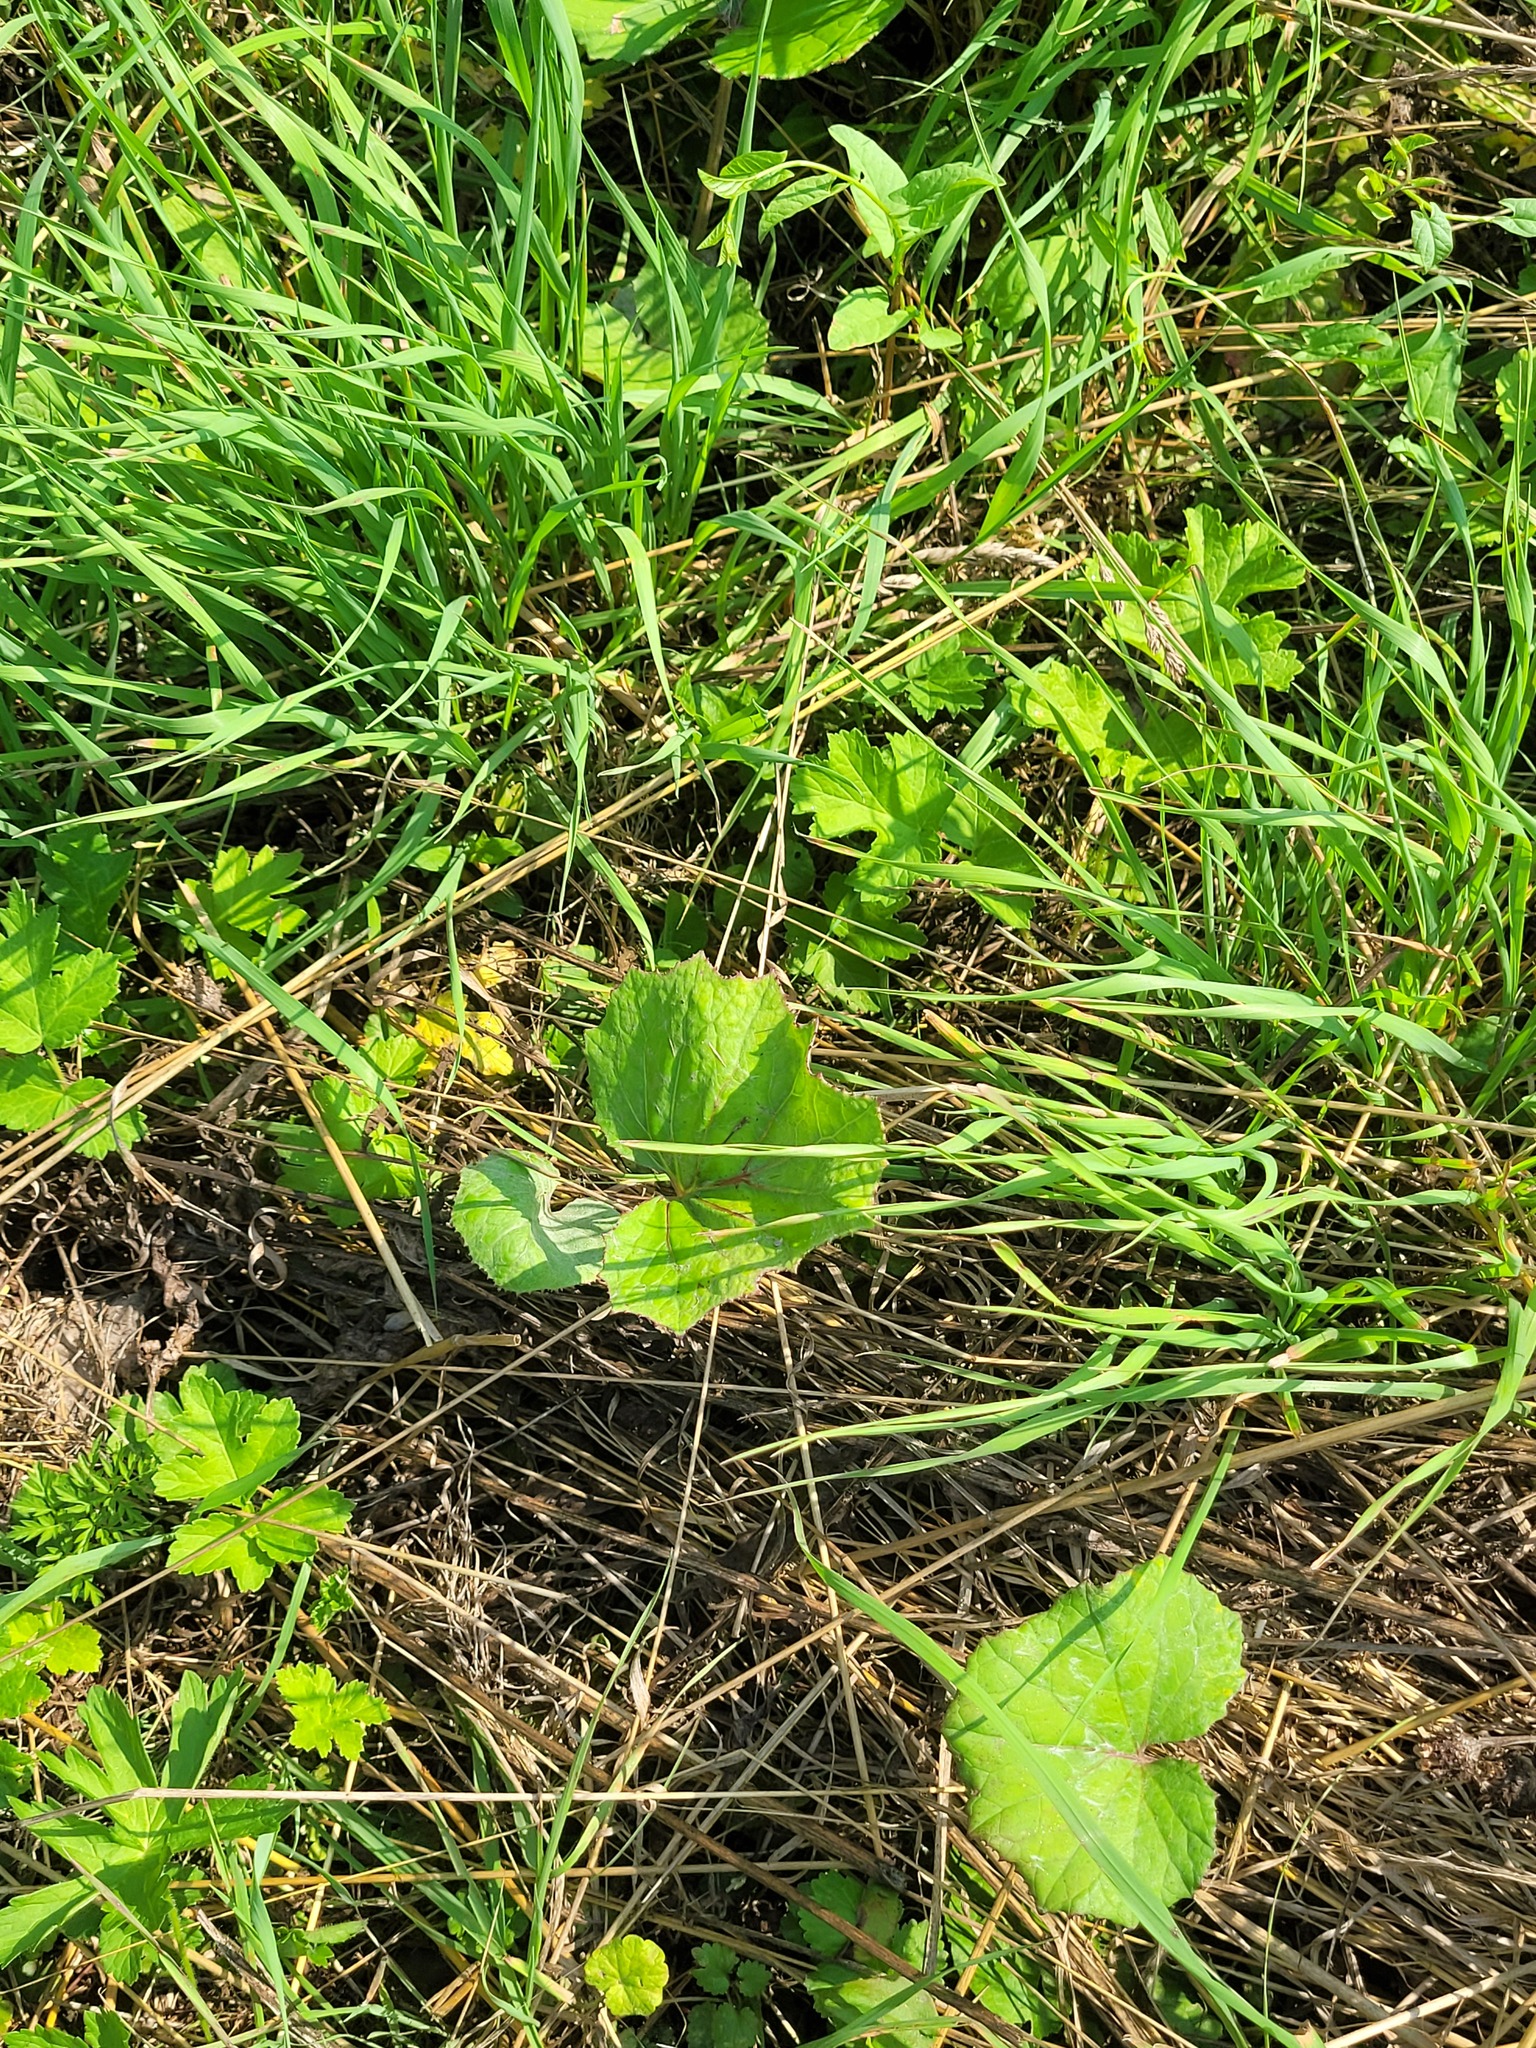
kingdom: Plantae
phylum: Tracheophyta
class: Magnoliopsida
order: Asterales
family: Asteraceae
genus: Tussilago
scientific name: Tussilago farfara
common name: Coltsfoot
